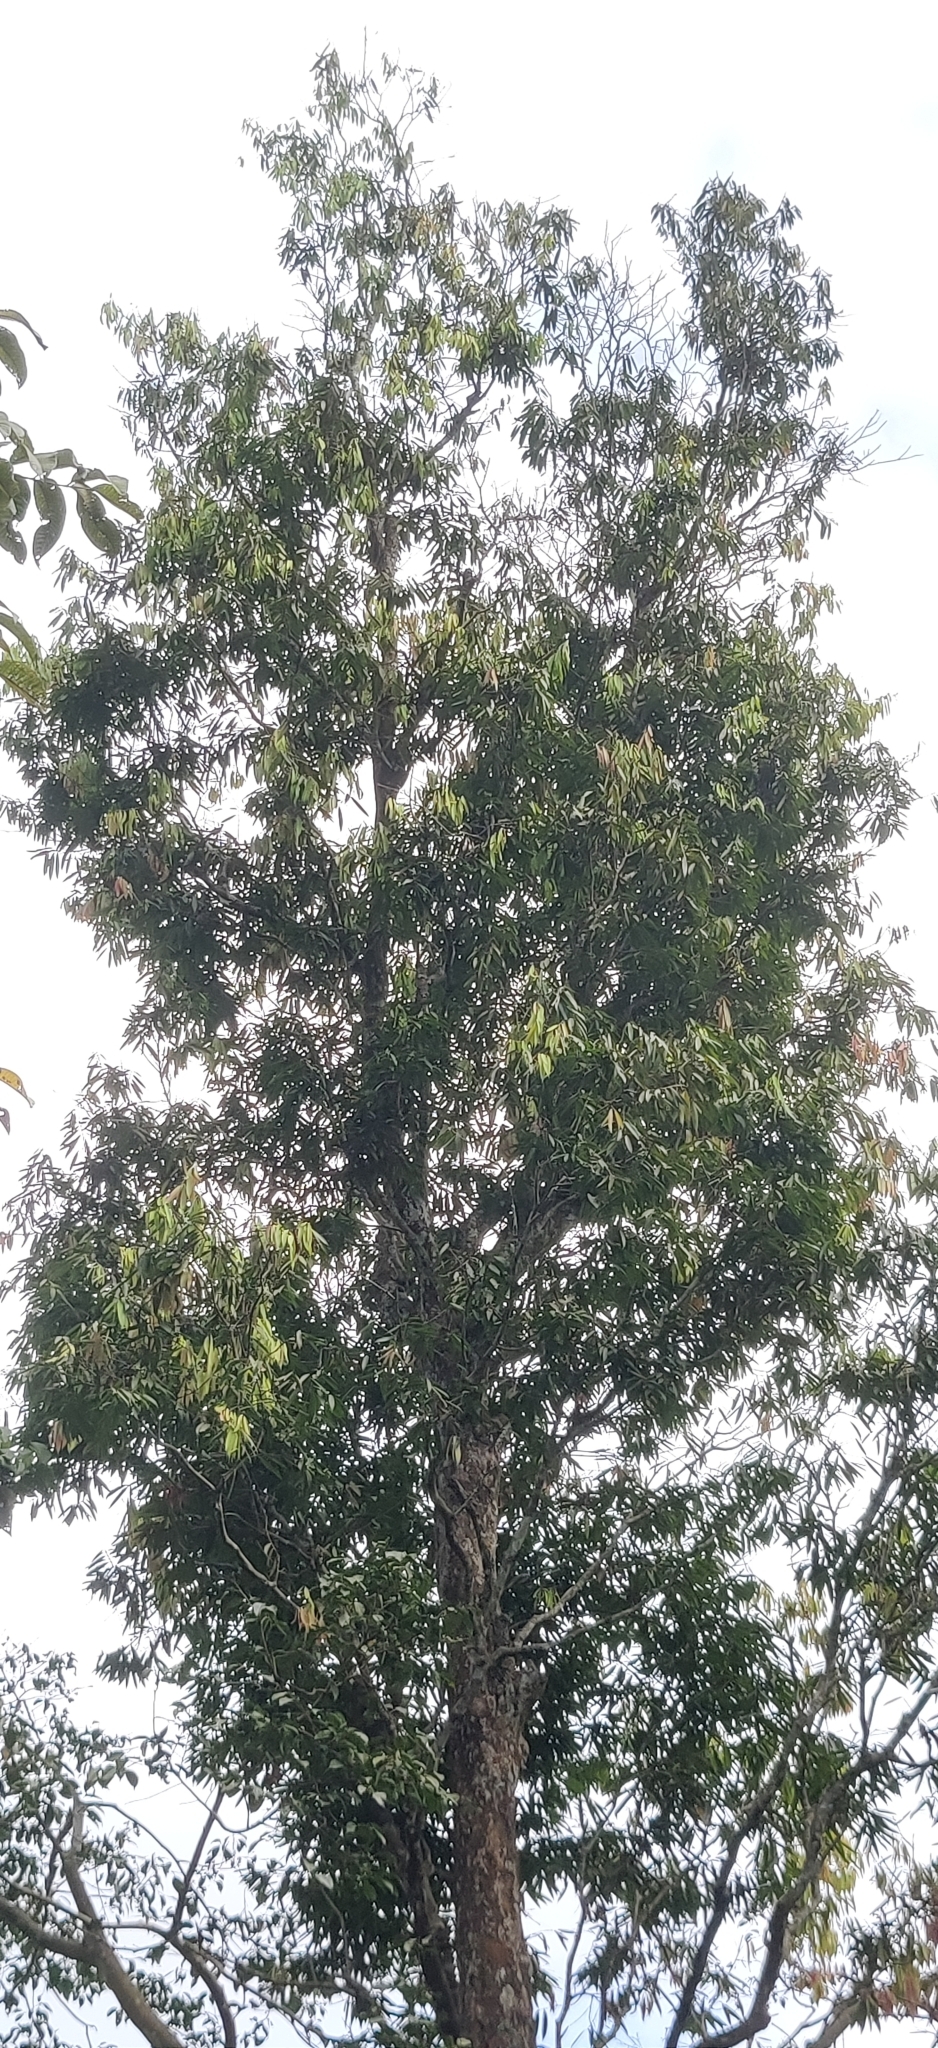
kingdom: Plantae
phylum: Tracheophyta
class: Magnoliopsida
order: Malpighiales
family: Calophyllaceae
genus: Mesua
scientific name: Mesua ferrea
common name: Mesua
